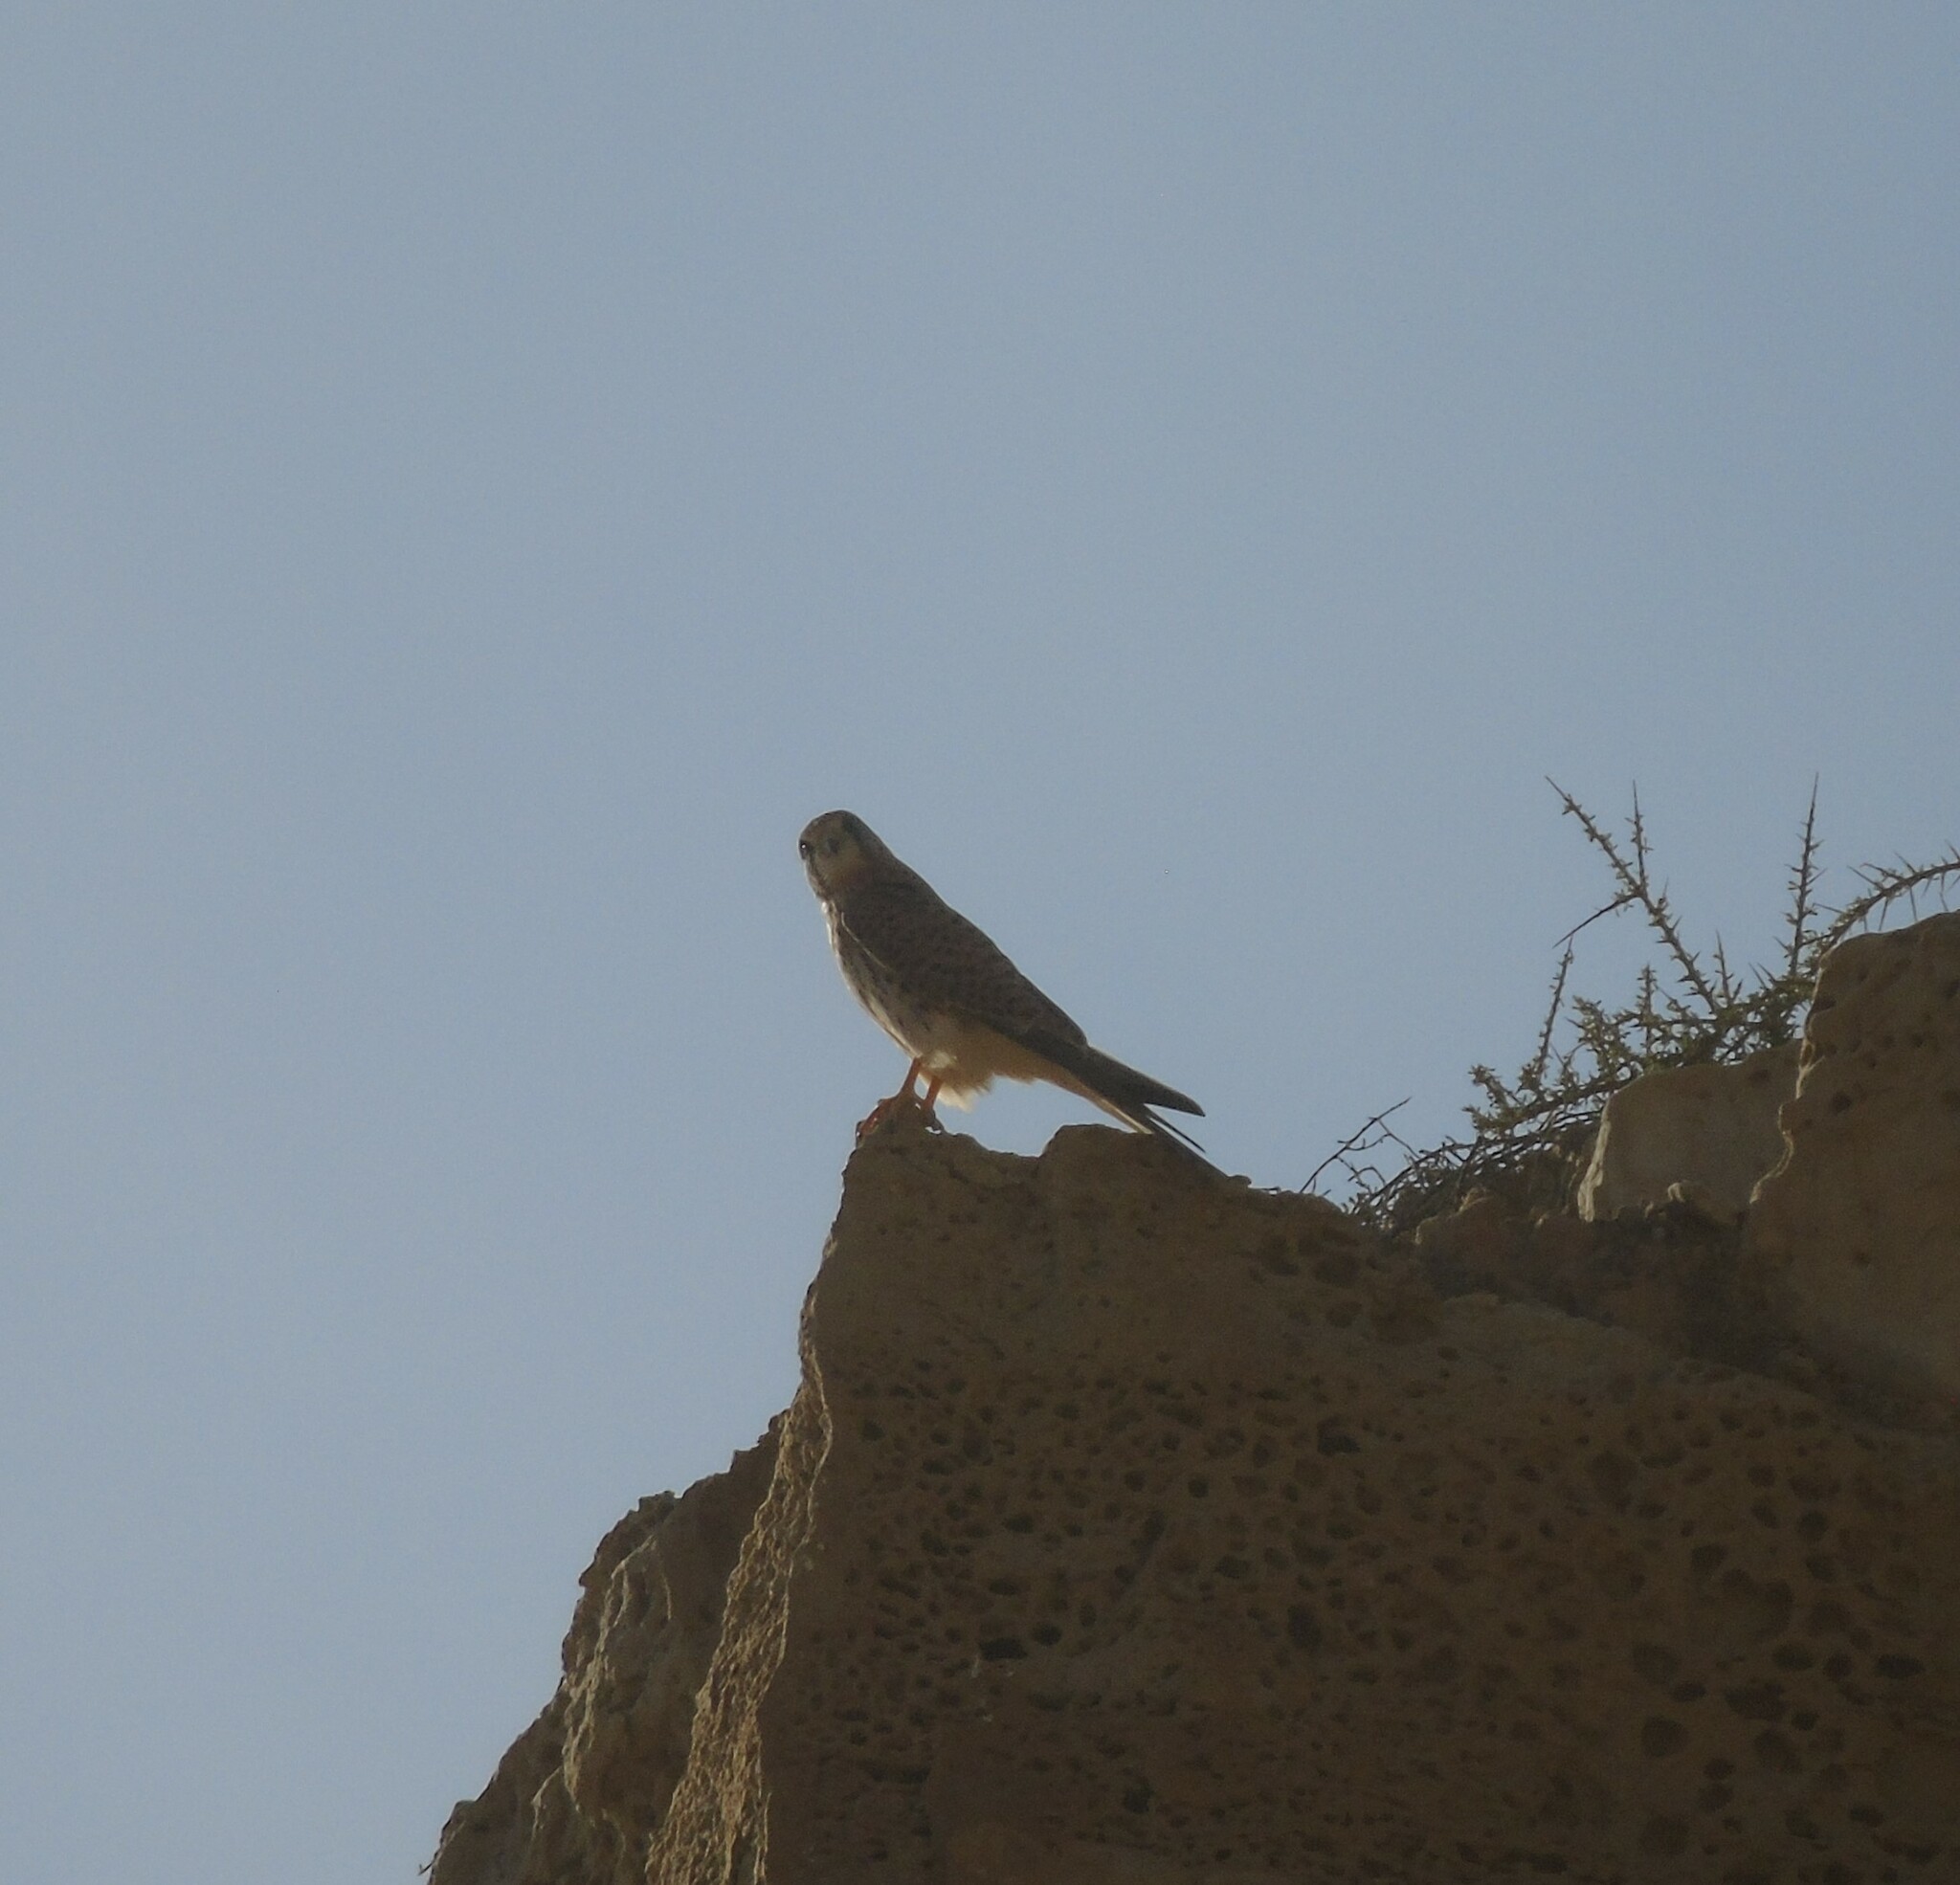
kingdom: Animalia
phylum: Chordata
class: Aves
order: Falconiformes
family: Falconidae
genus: Falco
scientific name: Falco tinnunculus
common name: Common kestrel
